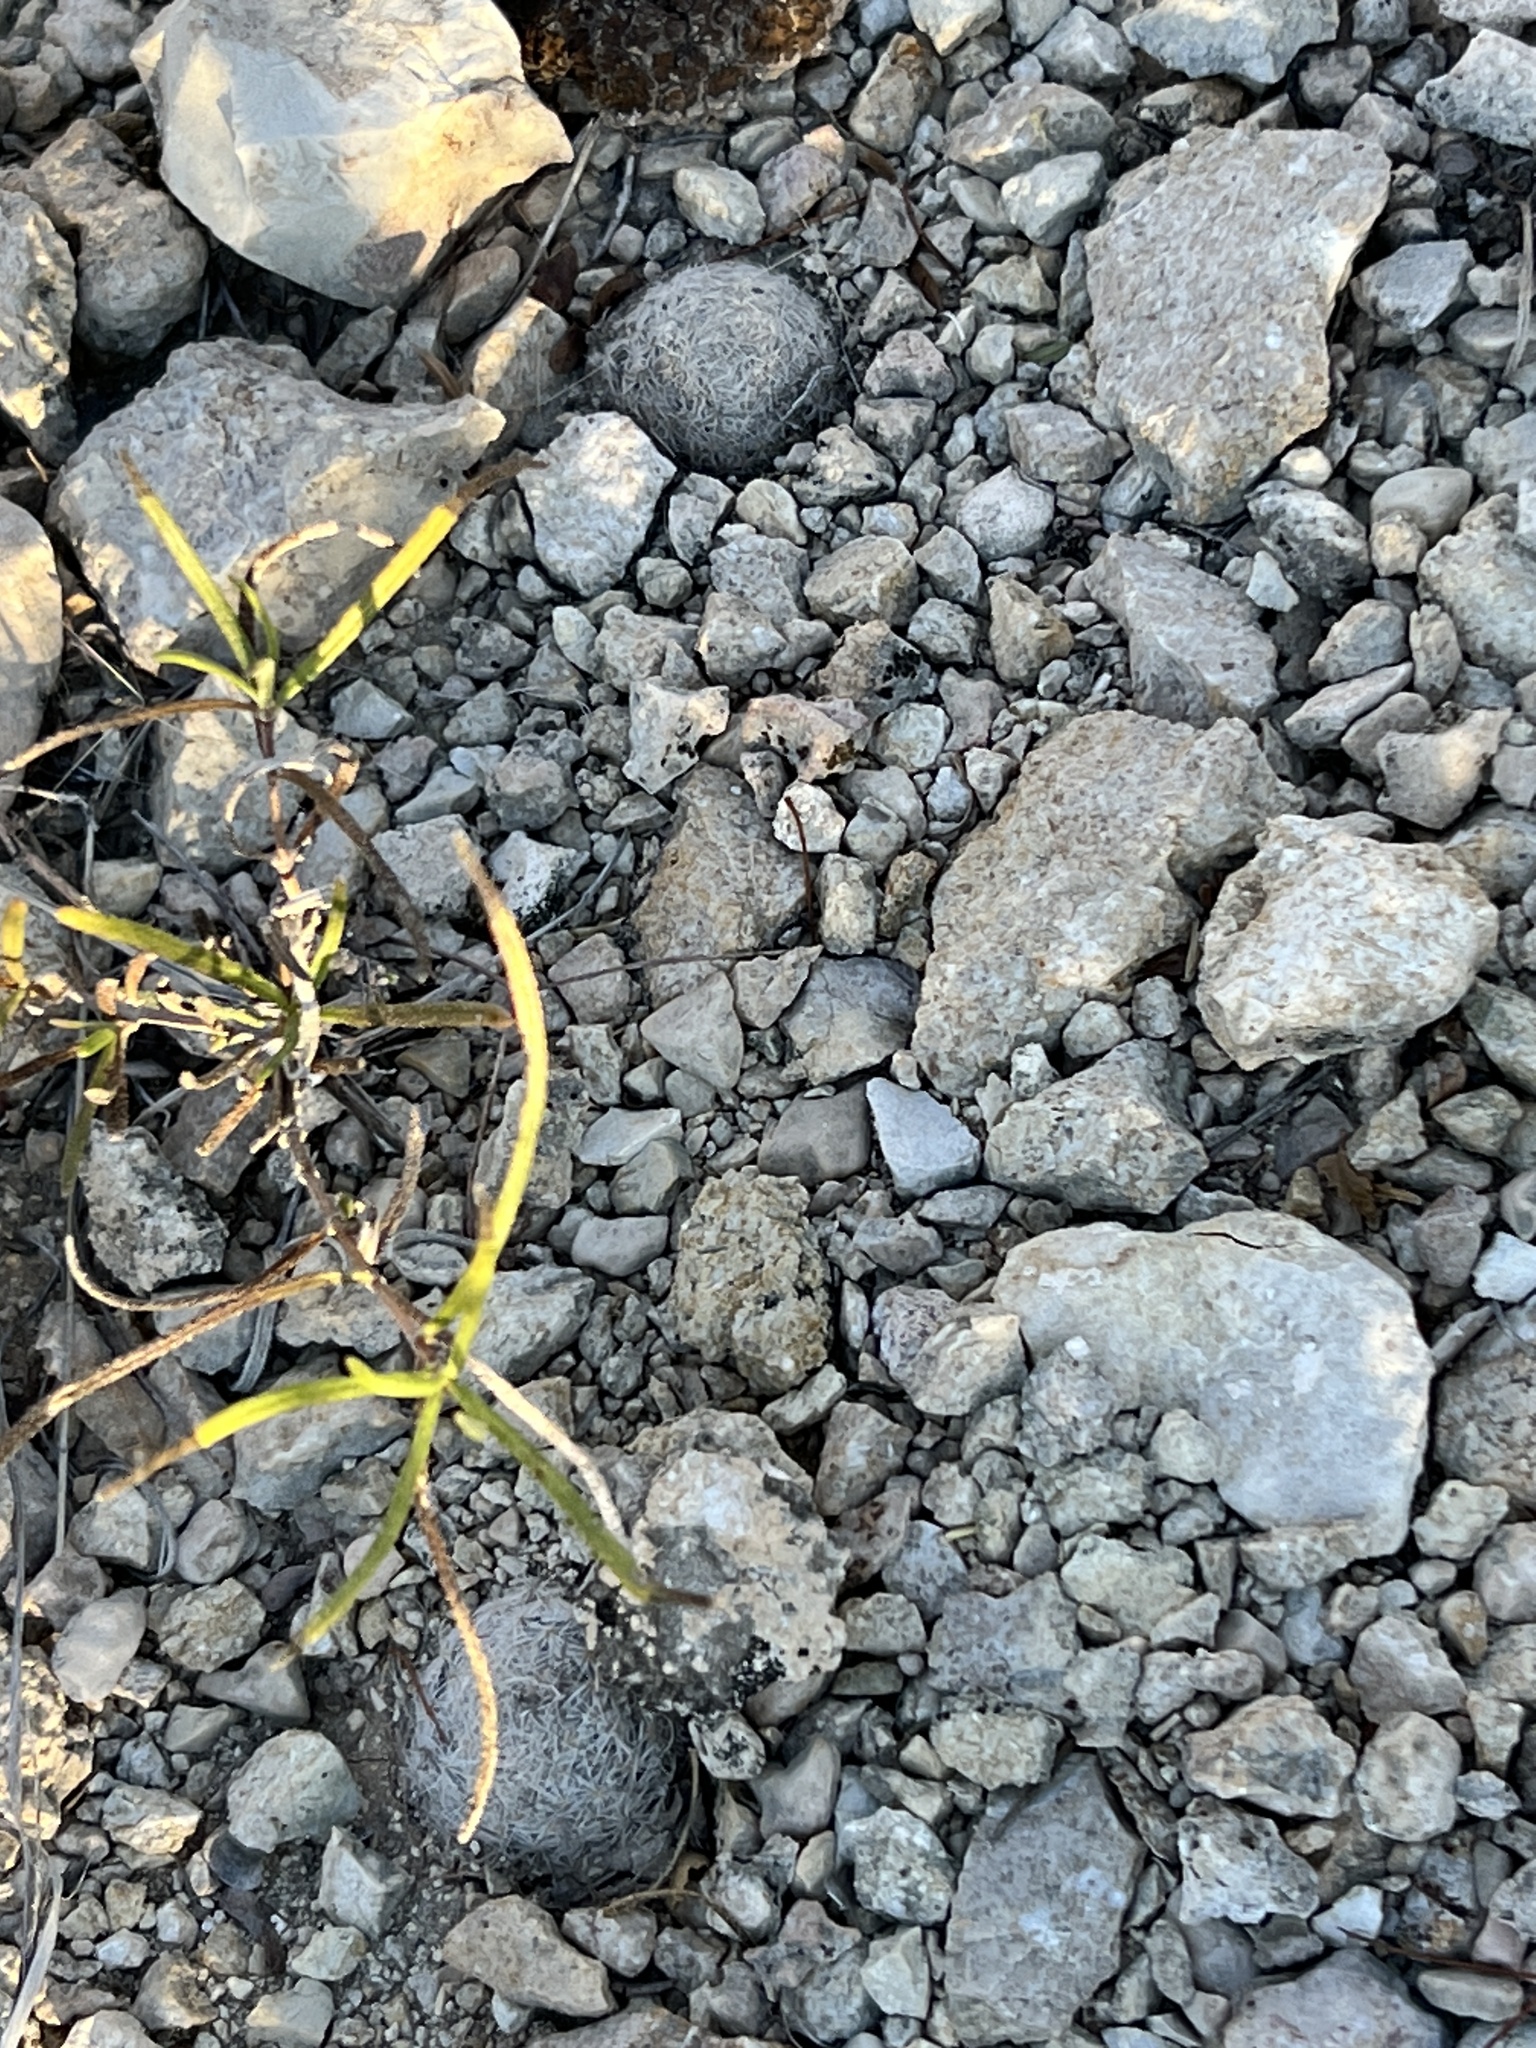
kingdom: Plantae
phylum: Tracheophyta
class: Magnoliopsida
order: Caryophyllales
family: Cactaceae
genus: Mammillaria
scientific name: Mammillaria lasiacantha
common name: Lace-spine nipple cactus
